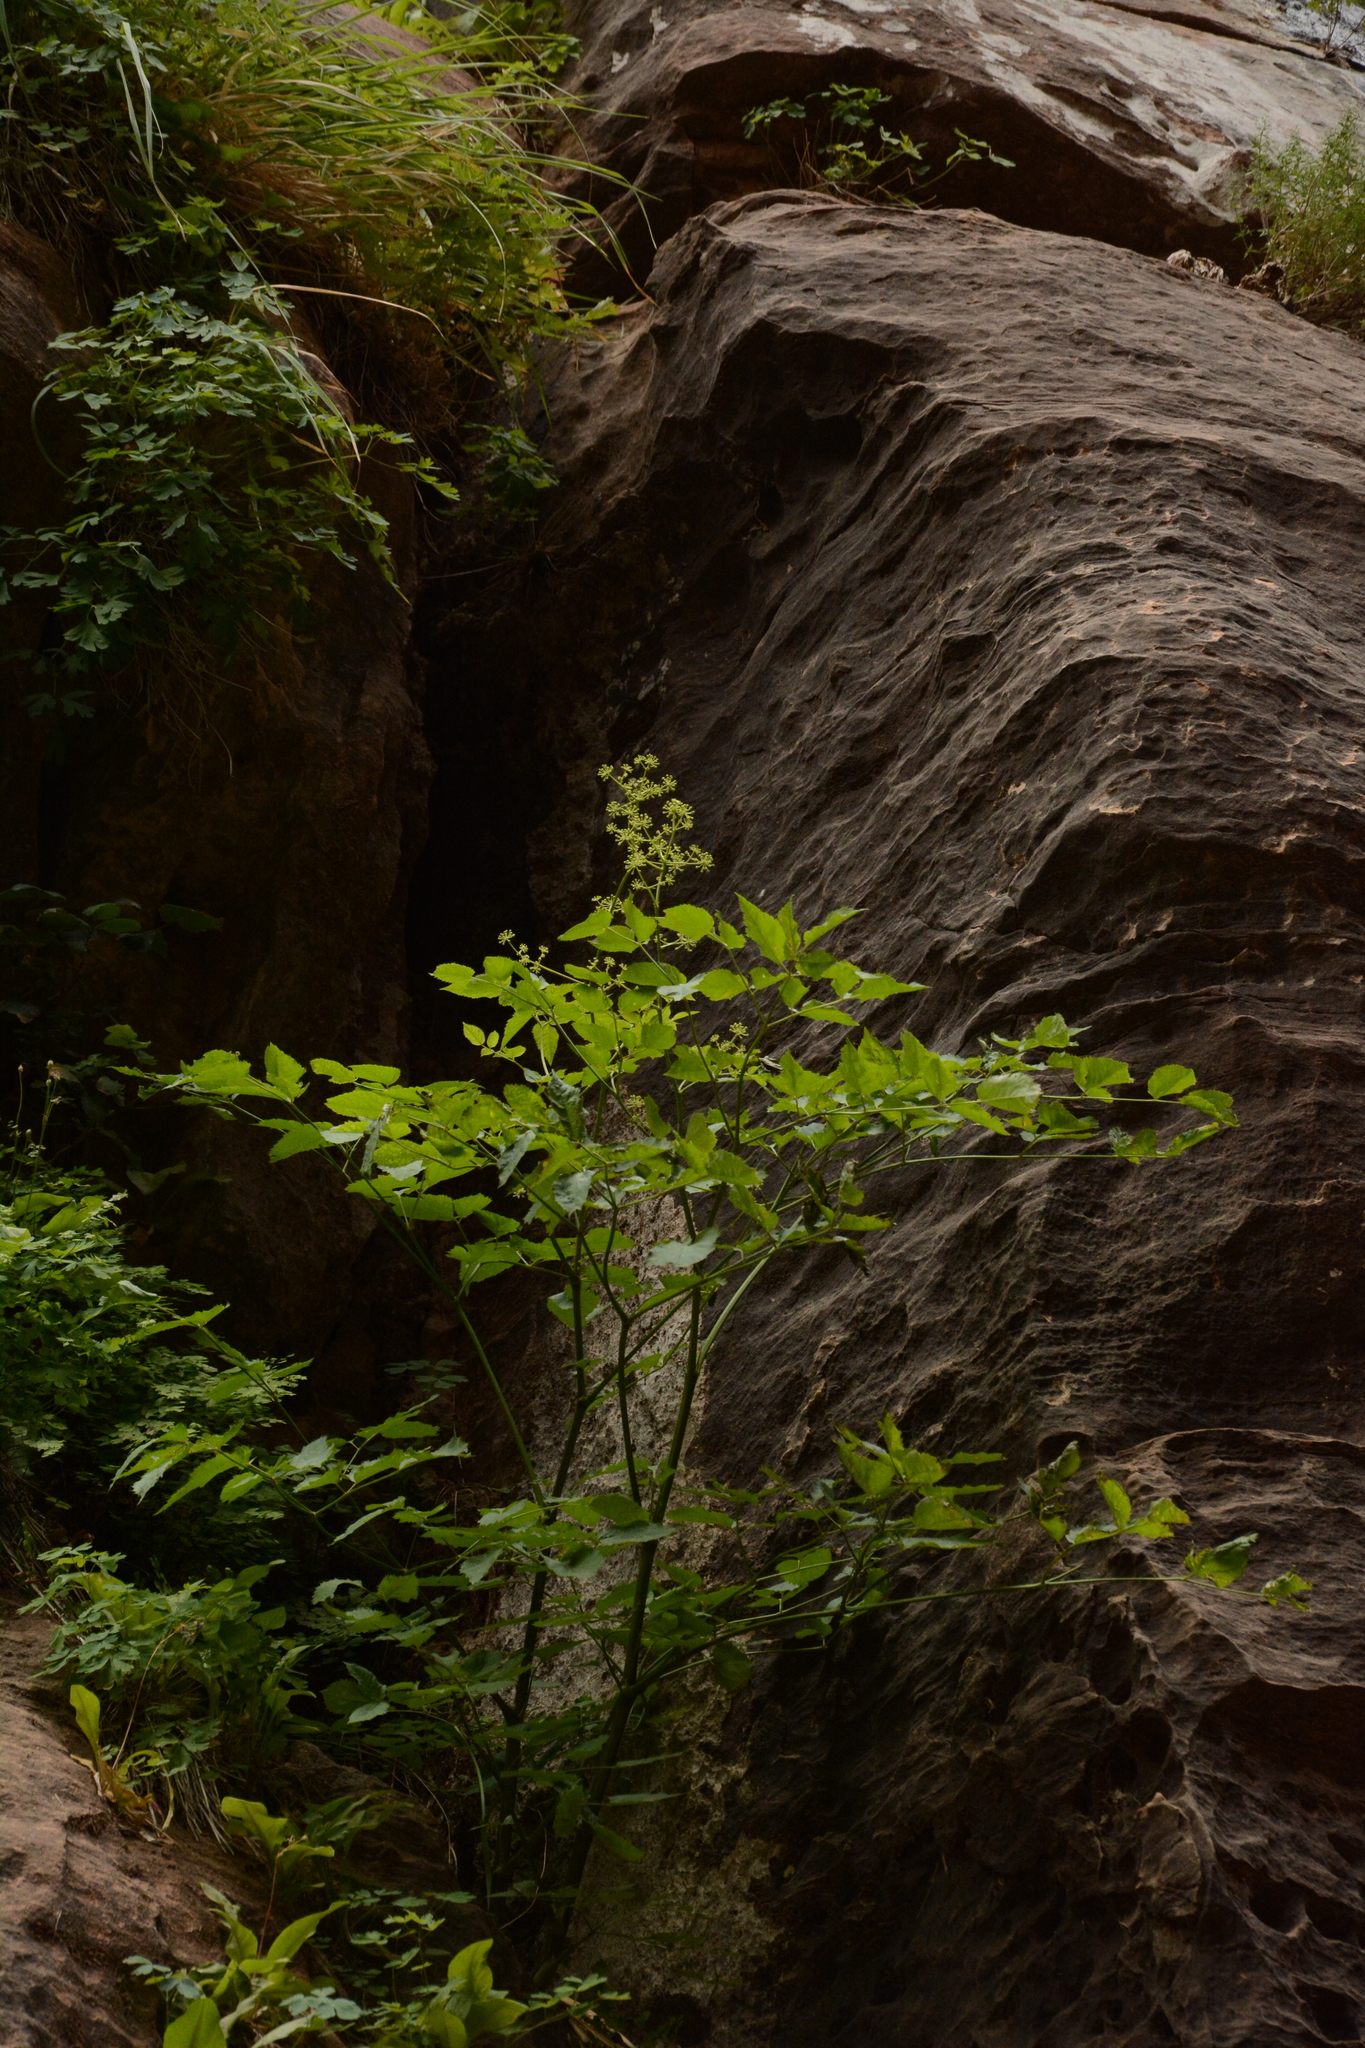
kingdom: Plantae
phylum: Tracheophyta
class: Magnoliopsida
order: Apiales
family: Araliaceae
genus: Aralia
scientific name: Aralia bicrenata
